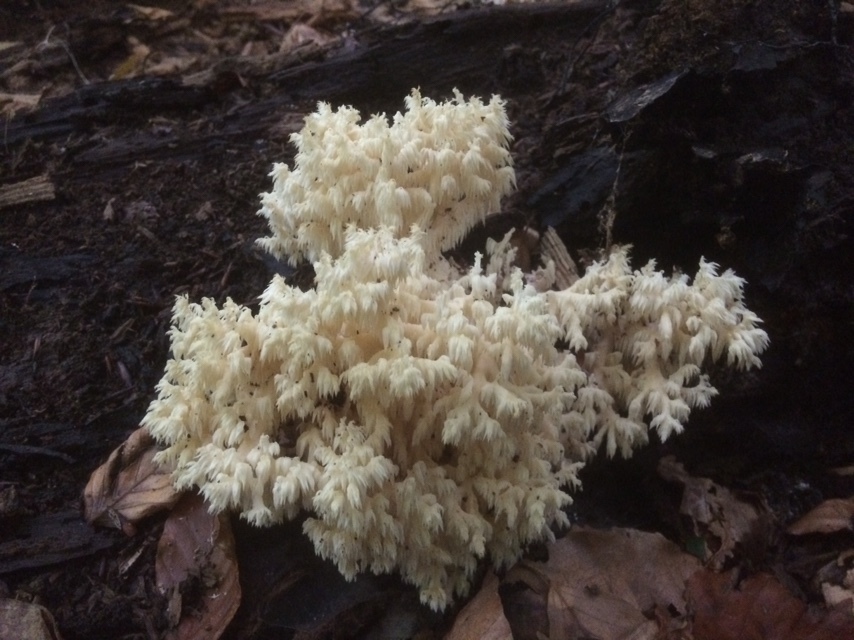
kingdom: Fungi
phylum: Basidiomycota
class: Agaricomycetes
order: Russulales
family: Hericiaceae
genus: Hericium
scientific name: Hericium coralloides
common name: Coral tooth
